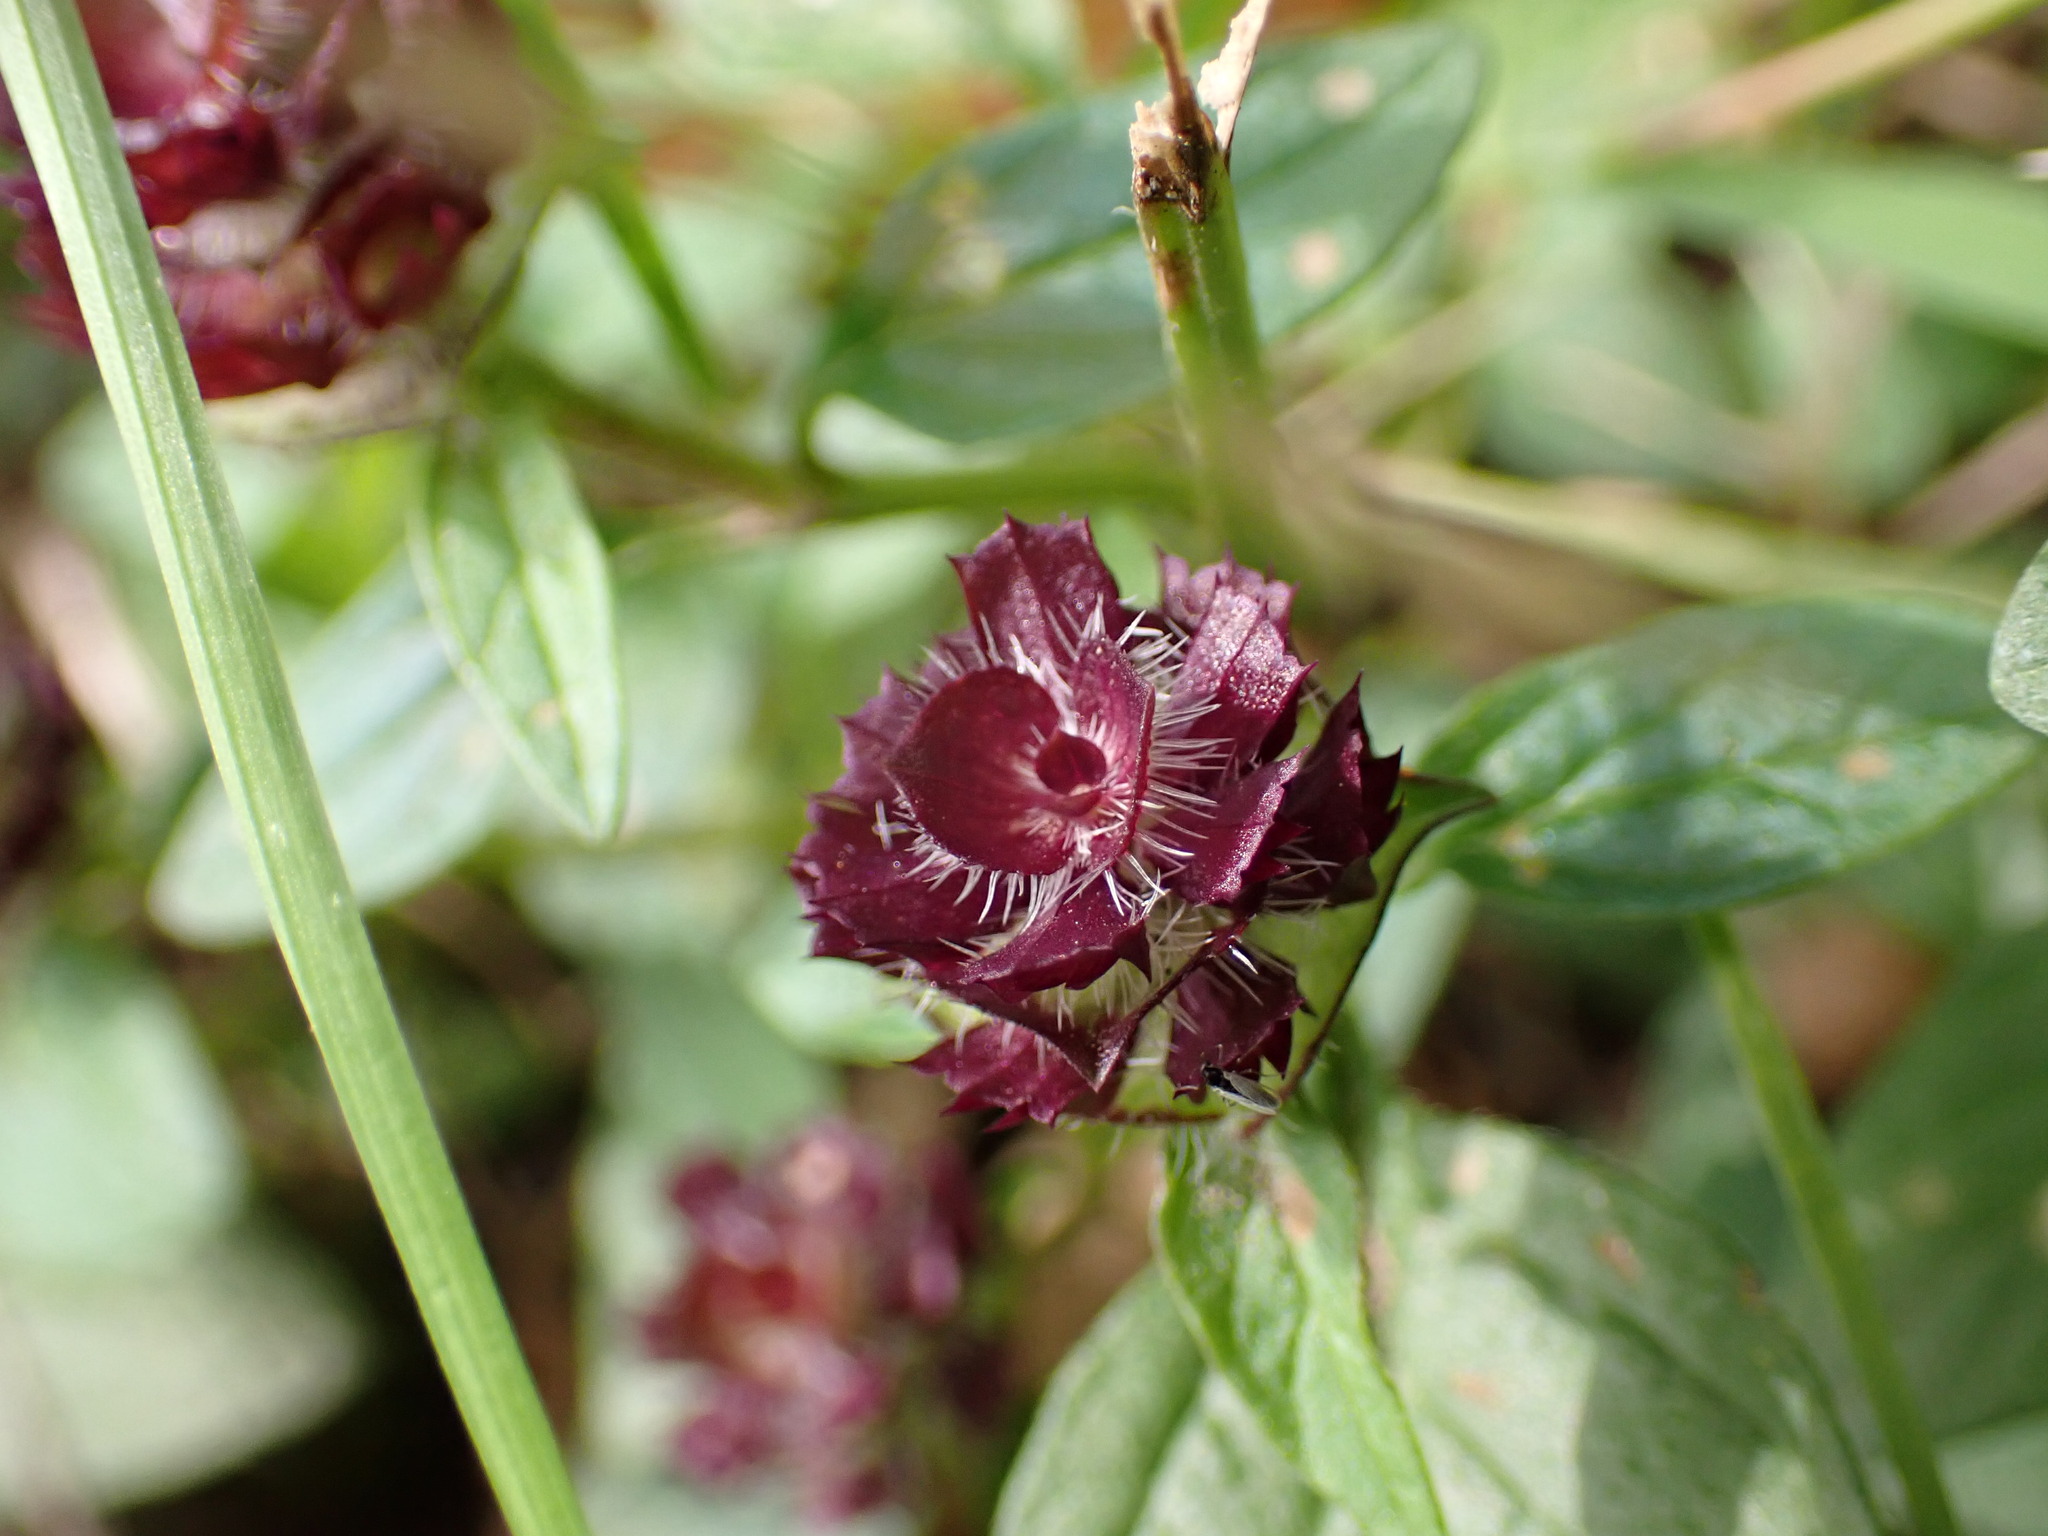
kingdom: Plantae
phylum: Tracheophyta
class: Magnoliopsida
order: Lamiales
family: Lamiaceae
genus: Prunella
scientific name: Prunella vulgaris
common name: Heal-all
